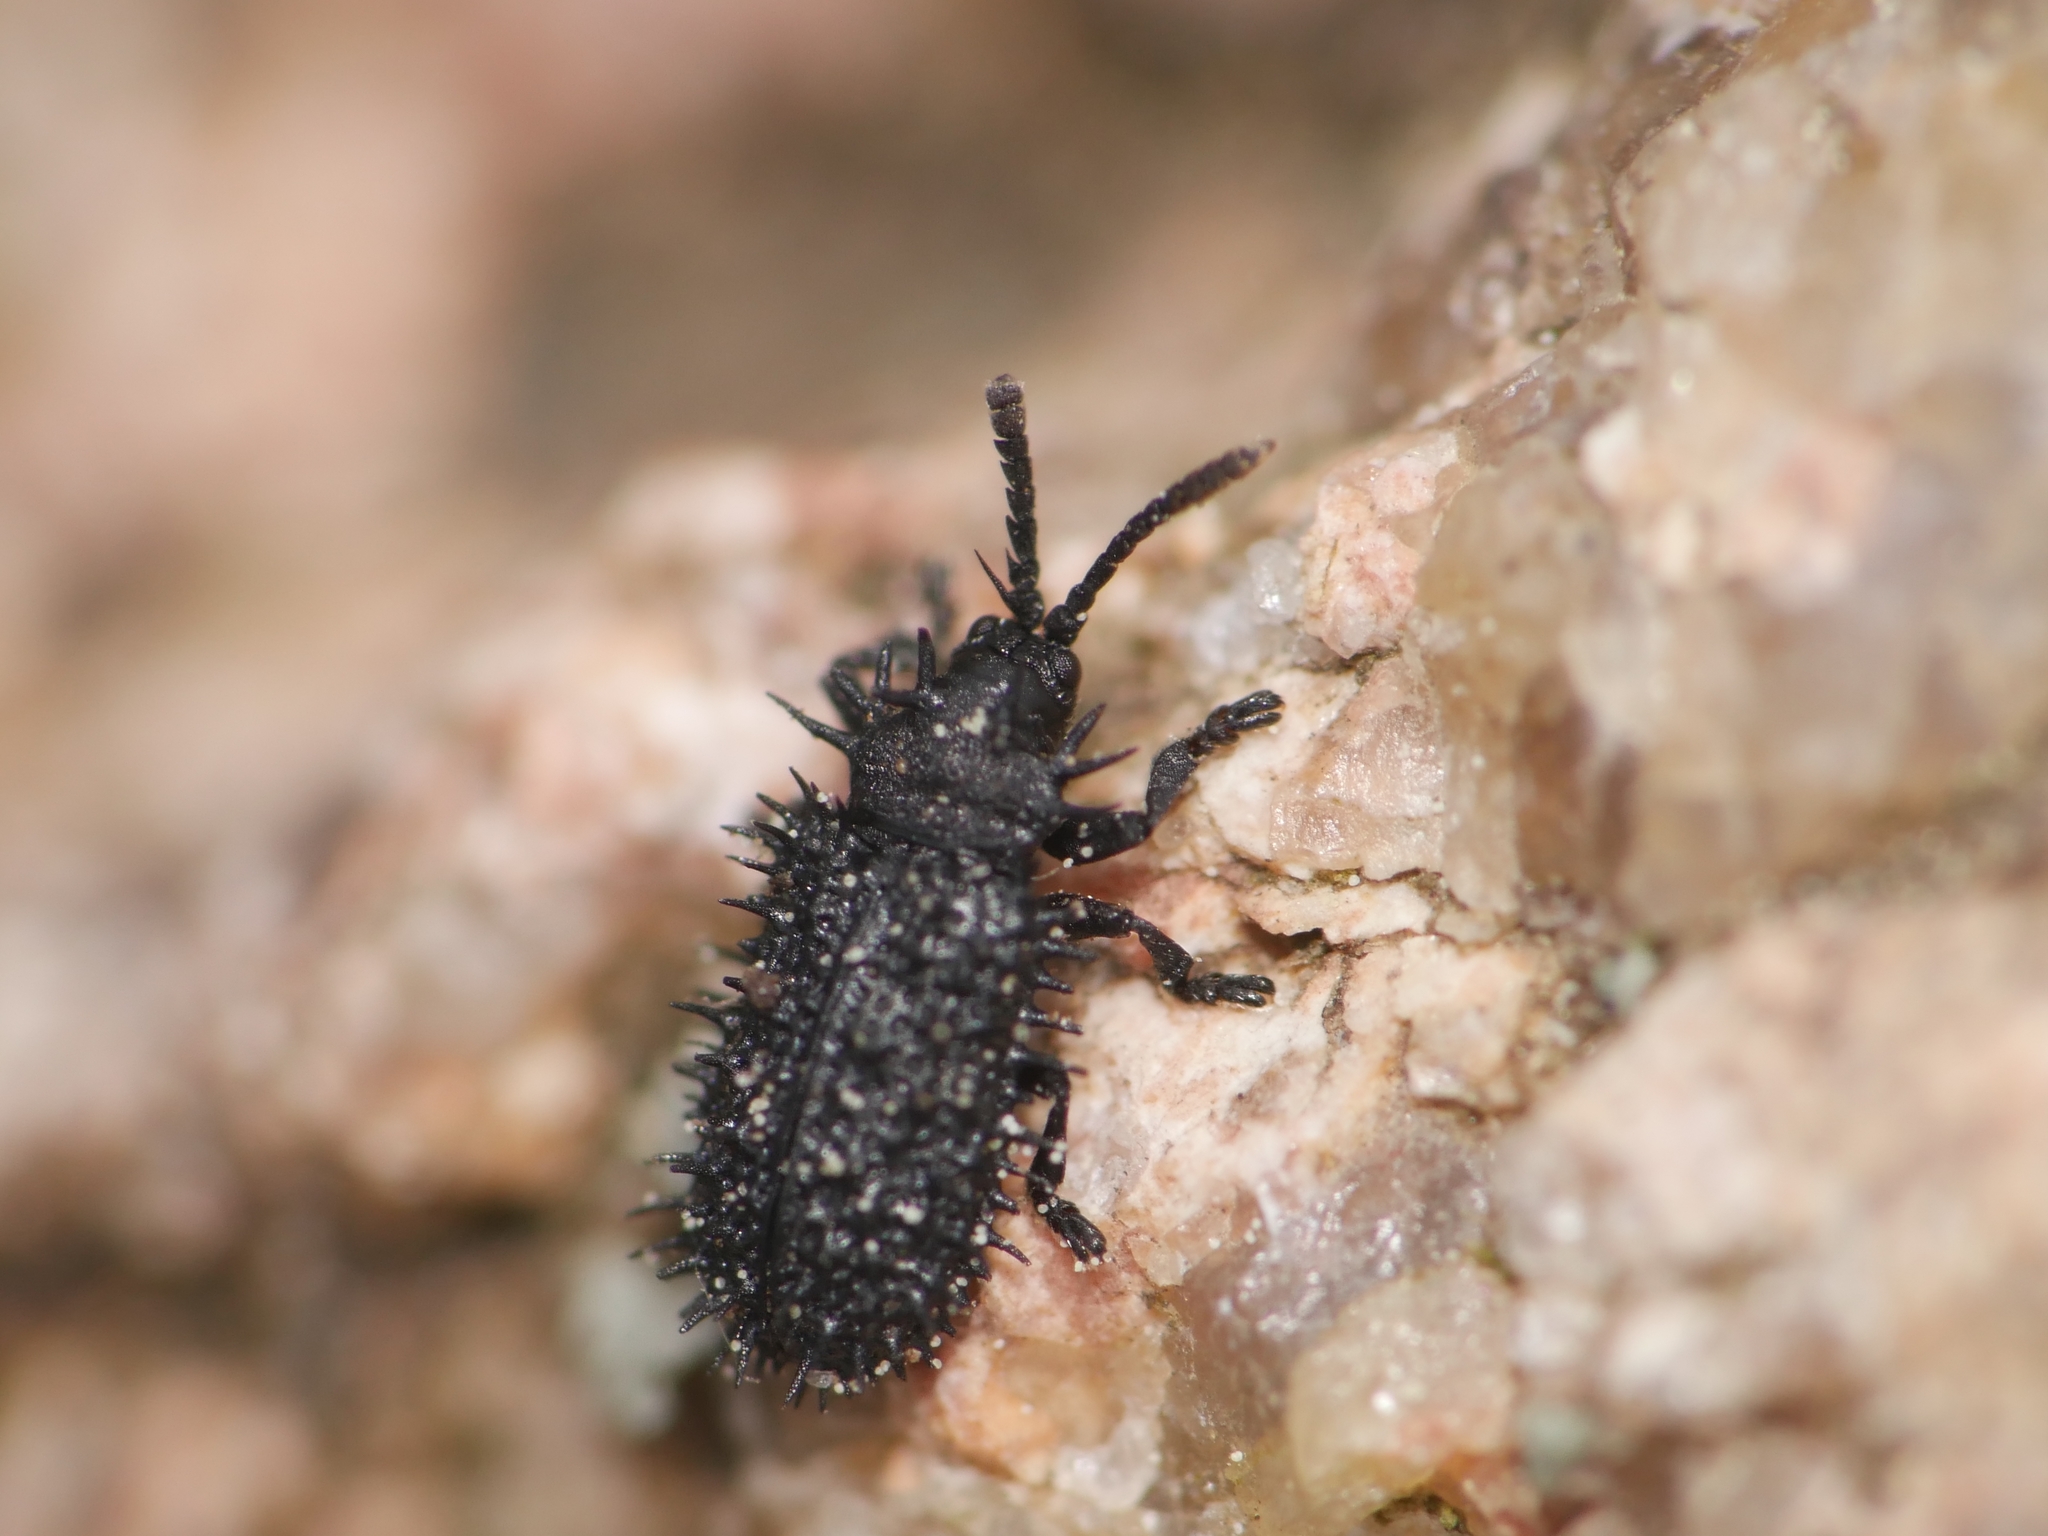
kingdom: Animalia
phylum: Arthropoda
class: Insecta
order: Coleoptera
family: Chrysomelidae
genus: Hispa
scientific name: Hispa atra
